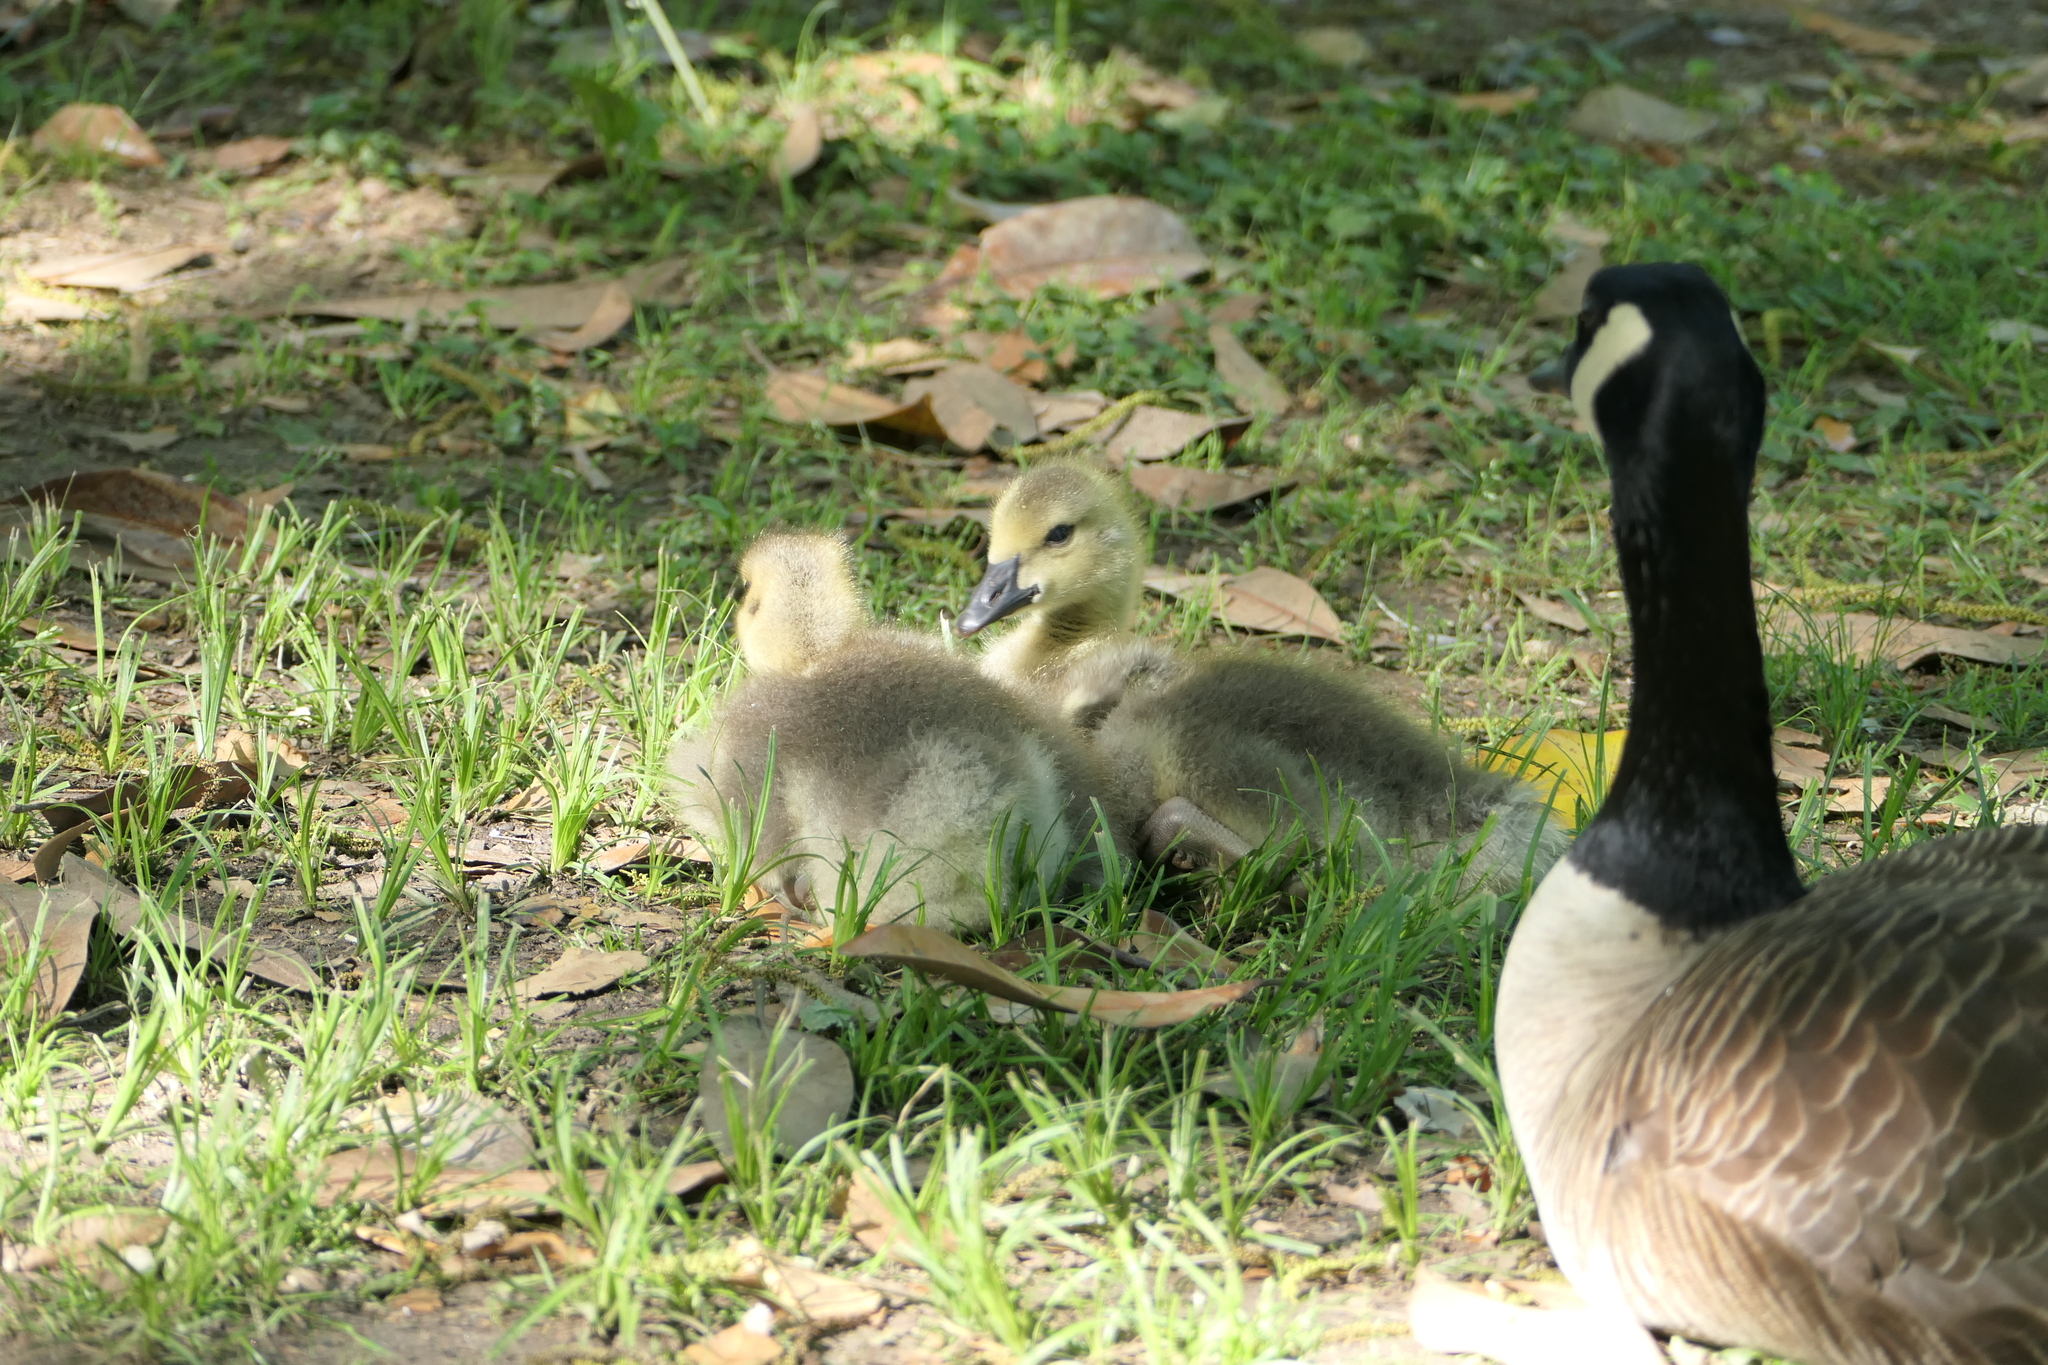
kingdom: Animalia
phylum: Chordata
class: Aves
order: Anseriformes
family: Anatidae
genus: Branta
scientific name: Branta canadensis
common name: Canada goose
